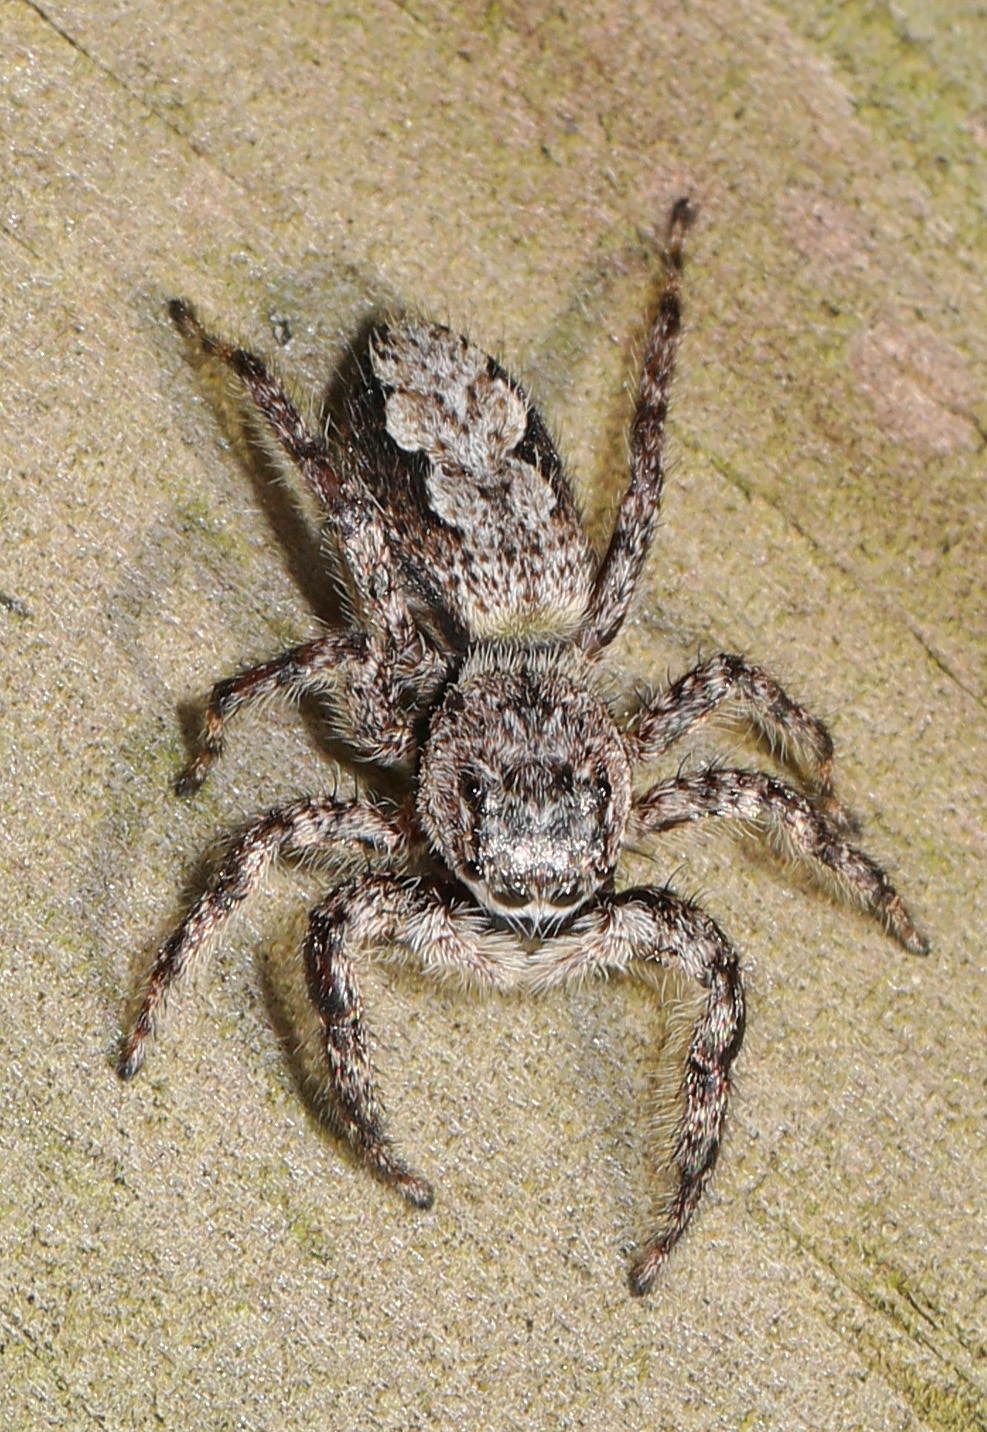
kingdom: Animalia
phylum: Arthropoda
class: Arachnida
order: Araneae
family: Salticidae
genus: Platycryptus
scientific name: Platycryptus undatus
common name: Tan jumping spider
